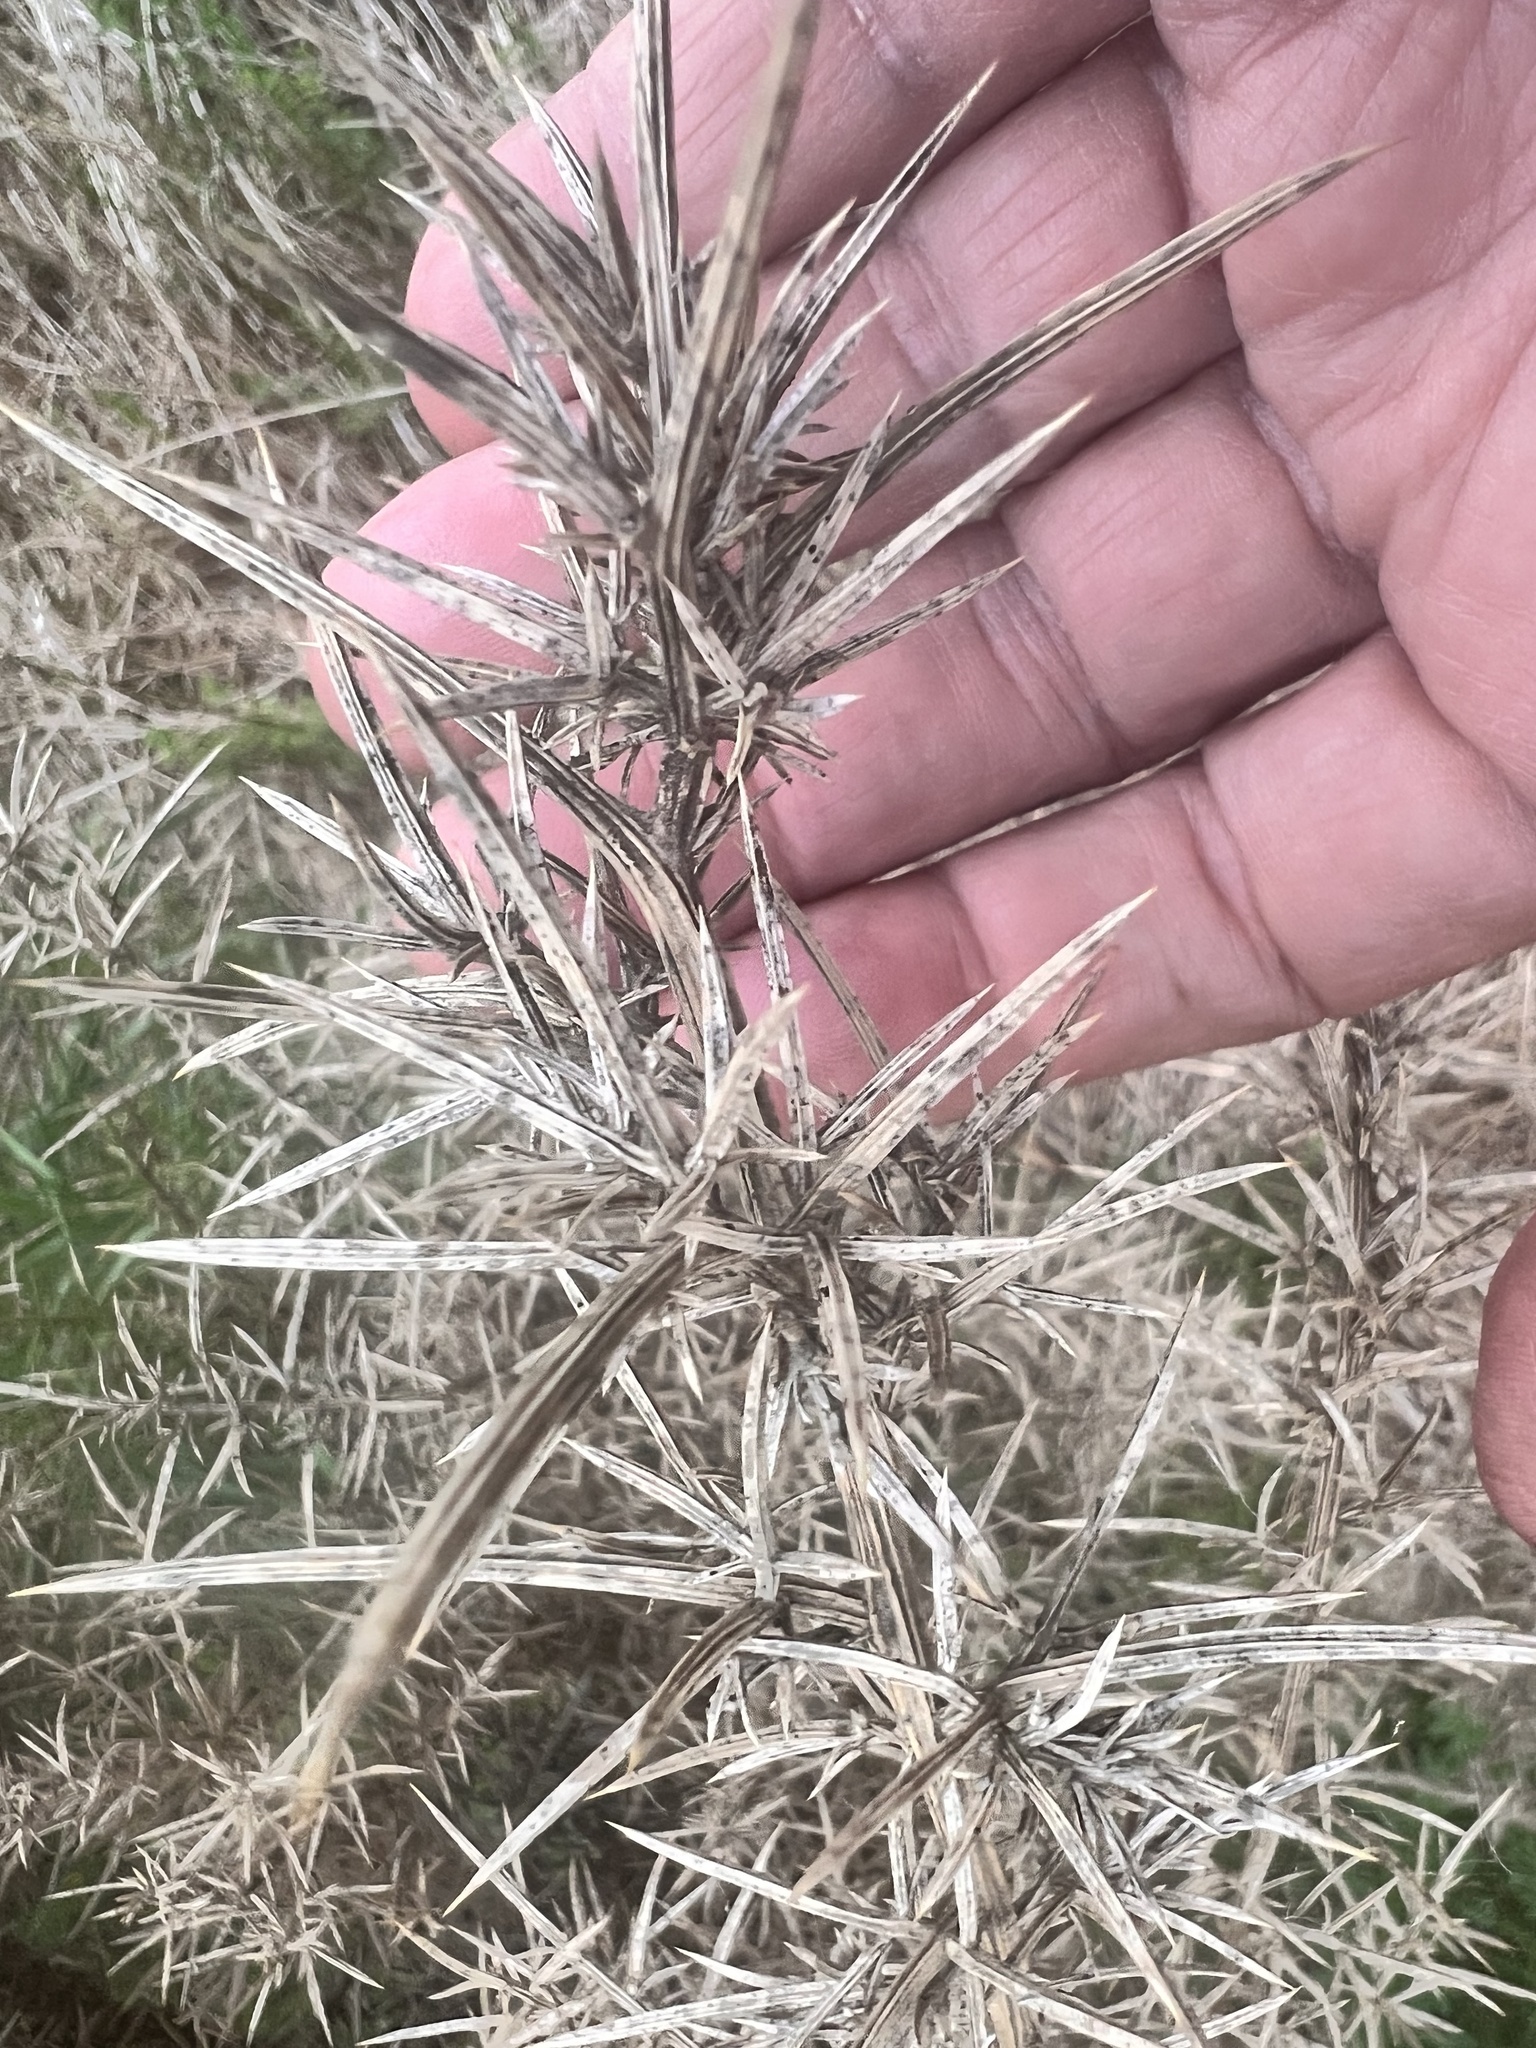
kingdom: Plantae
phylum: Tracheophyta
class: Magnoliopsida
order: Fabales
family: Fabaceae
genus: Ulex
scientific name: Ulex europaeus
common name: Common gorse
